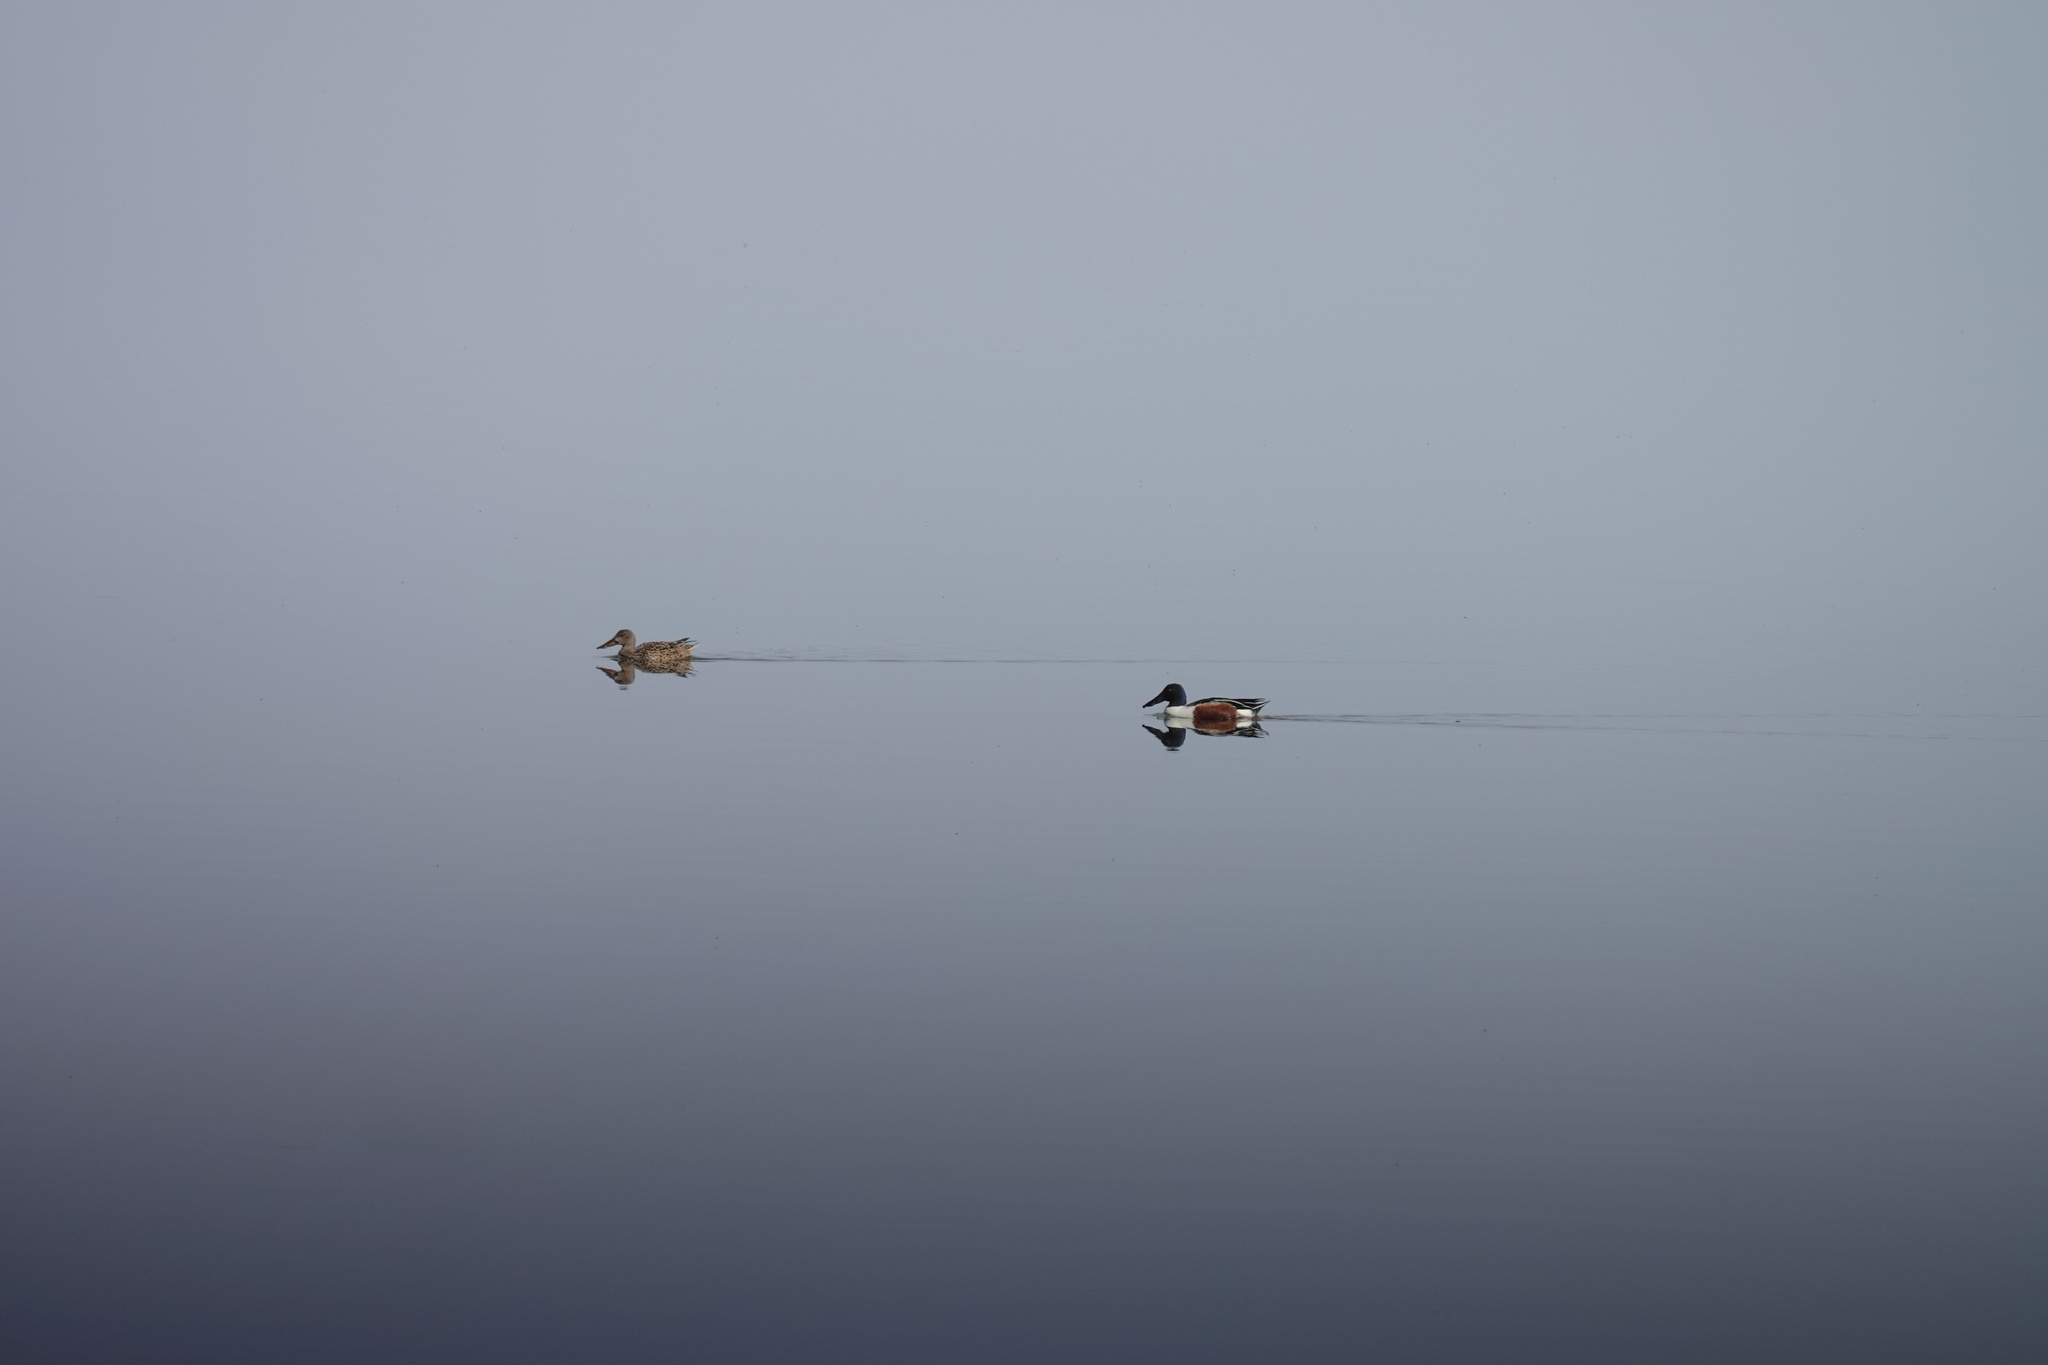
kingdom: Animalia
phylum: Chordata
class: Aves
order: Anseriformes
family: Anatidae
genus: Spatula
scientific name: Spatula clypeata
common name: Northern shoveler
